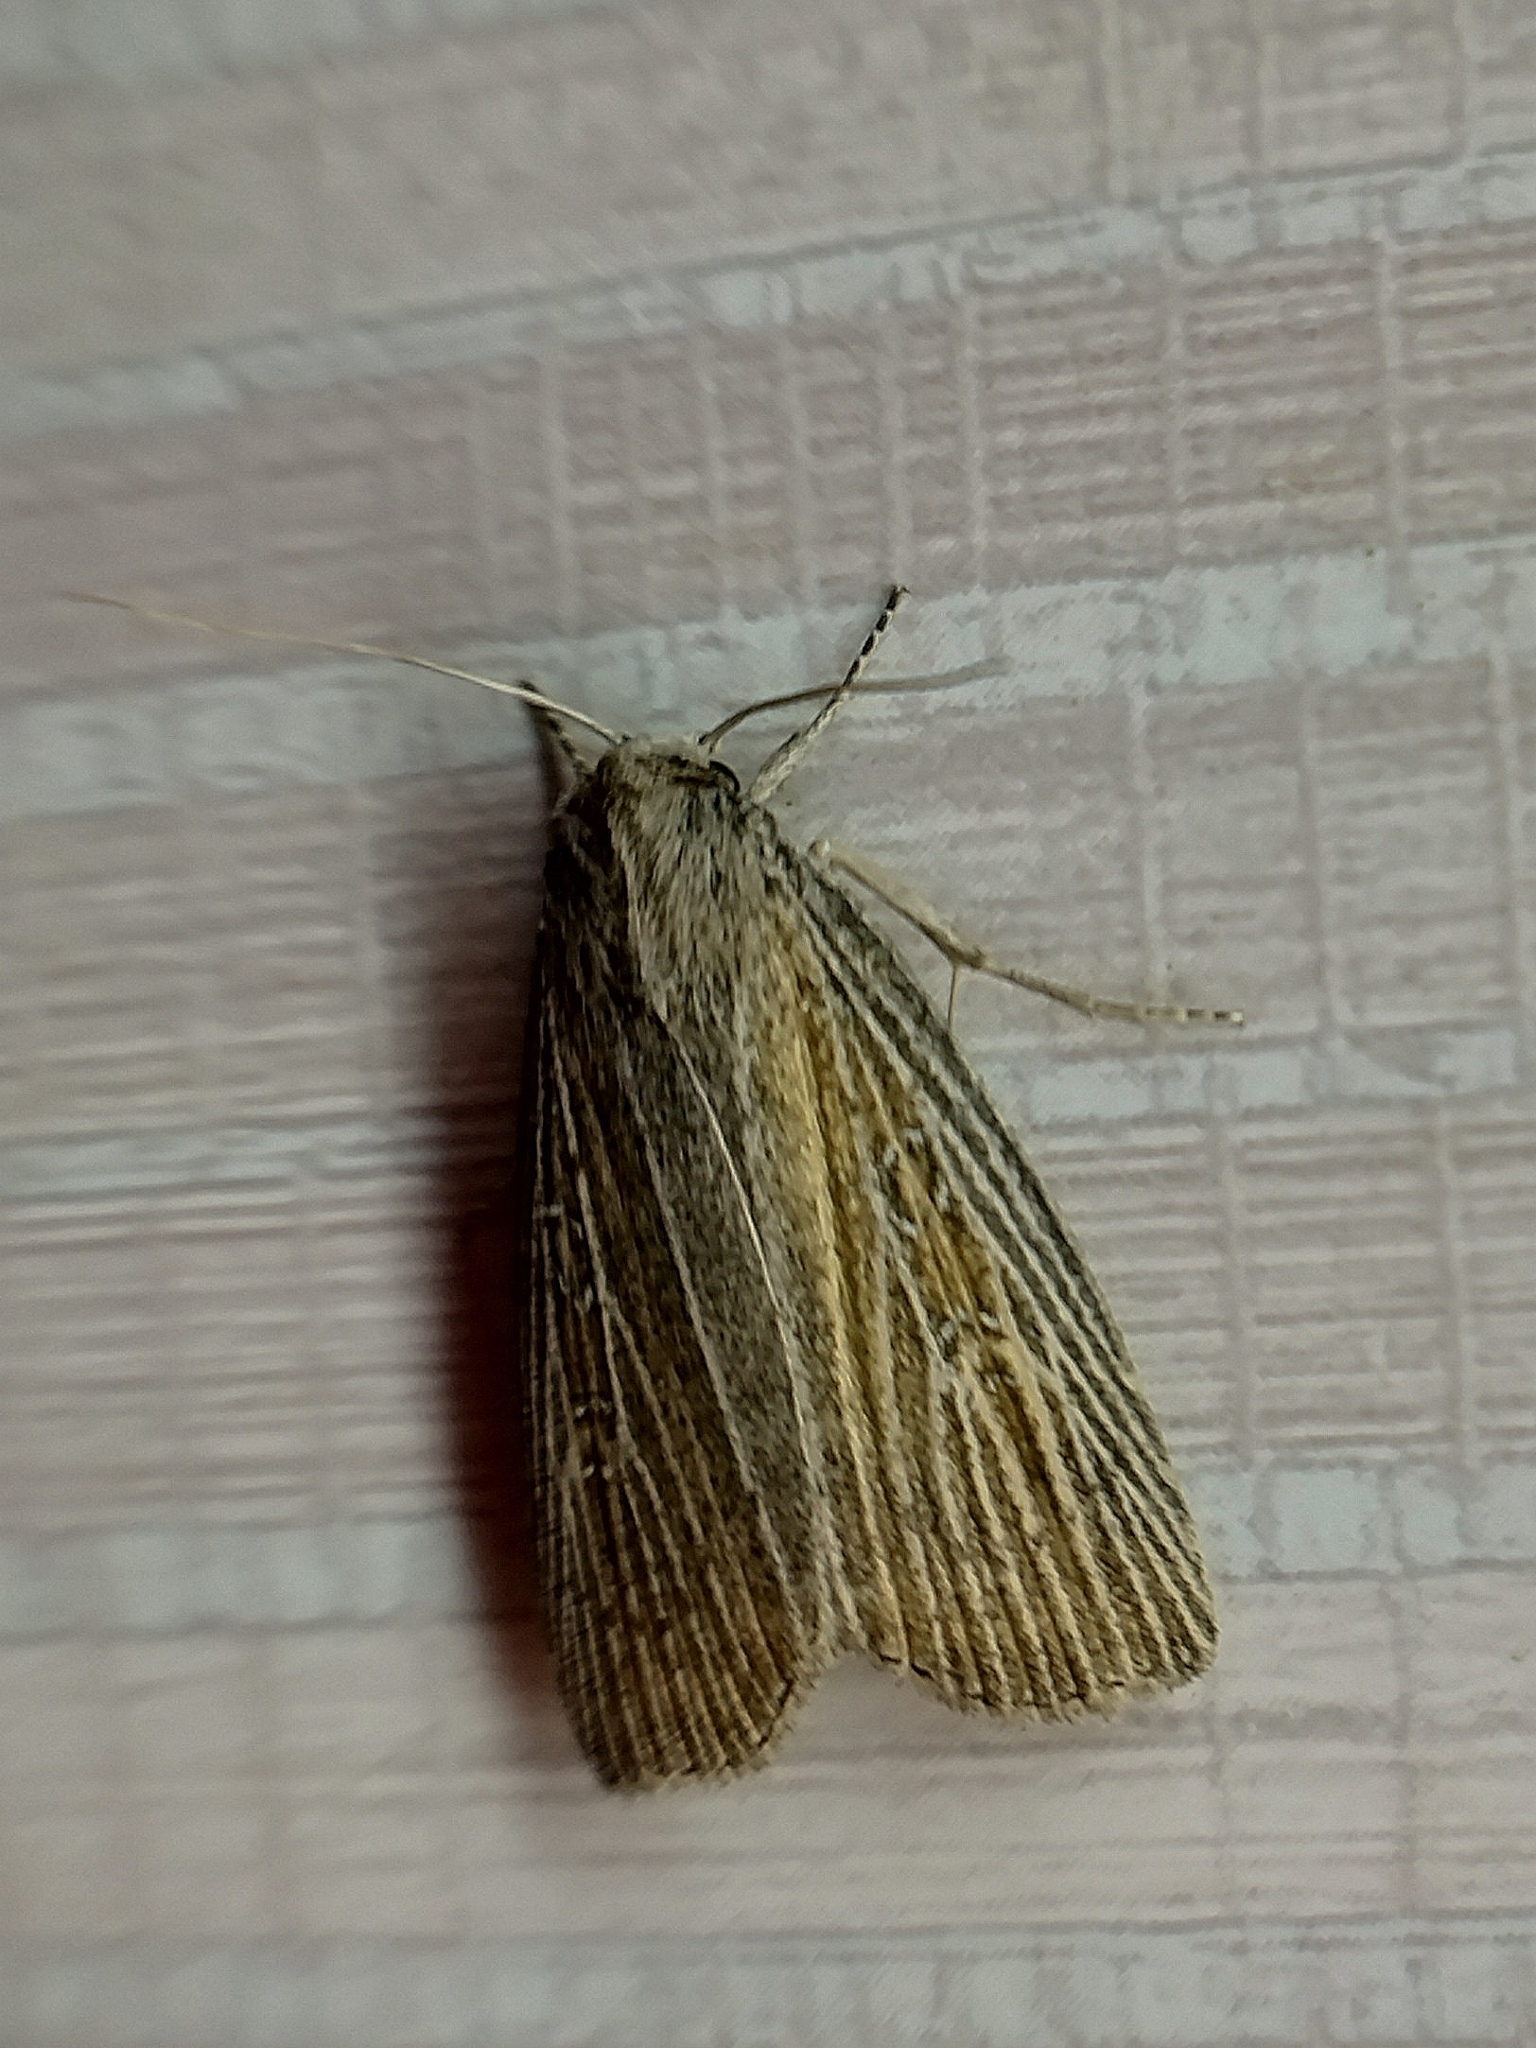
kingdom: Animalia
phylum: Arthropoda
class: Insecta
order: Lepidoptera
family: Noctuidae
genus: Chilodes
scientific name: Chilodes maritima
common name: Silky wainscot
